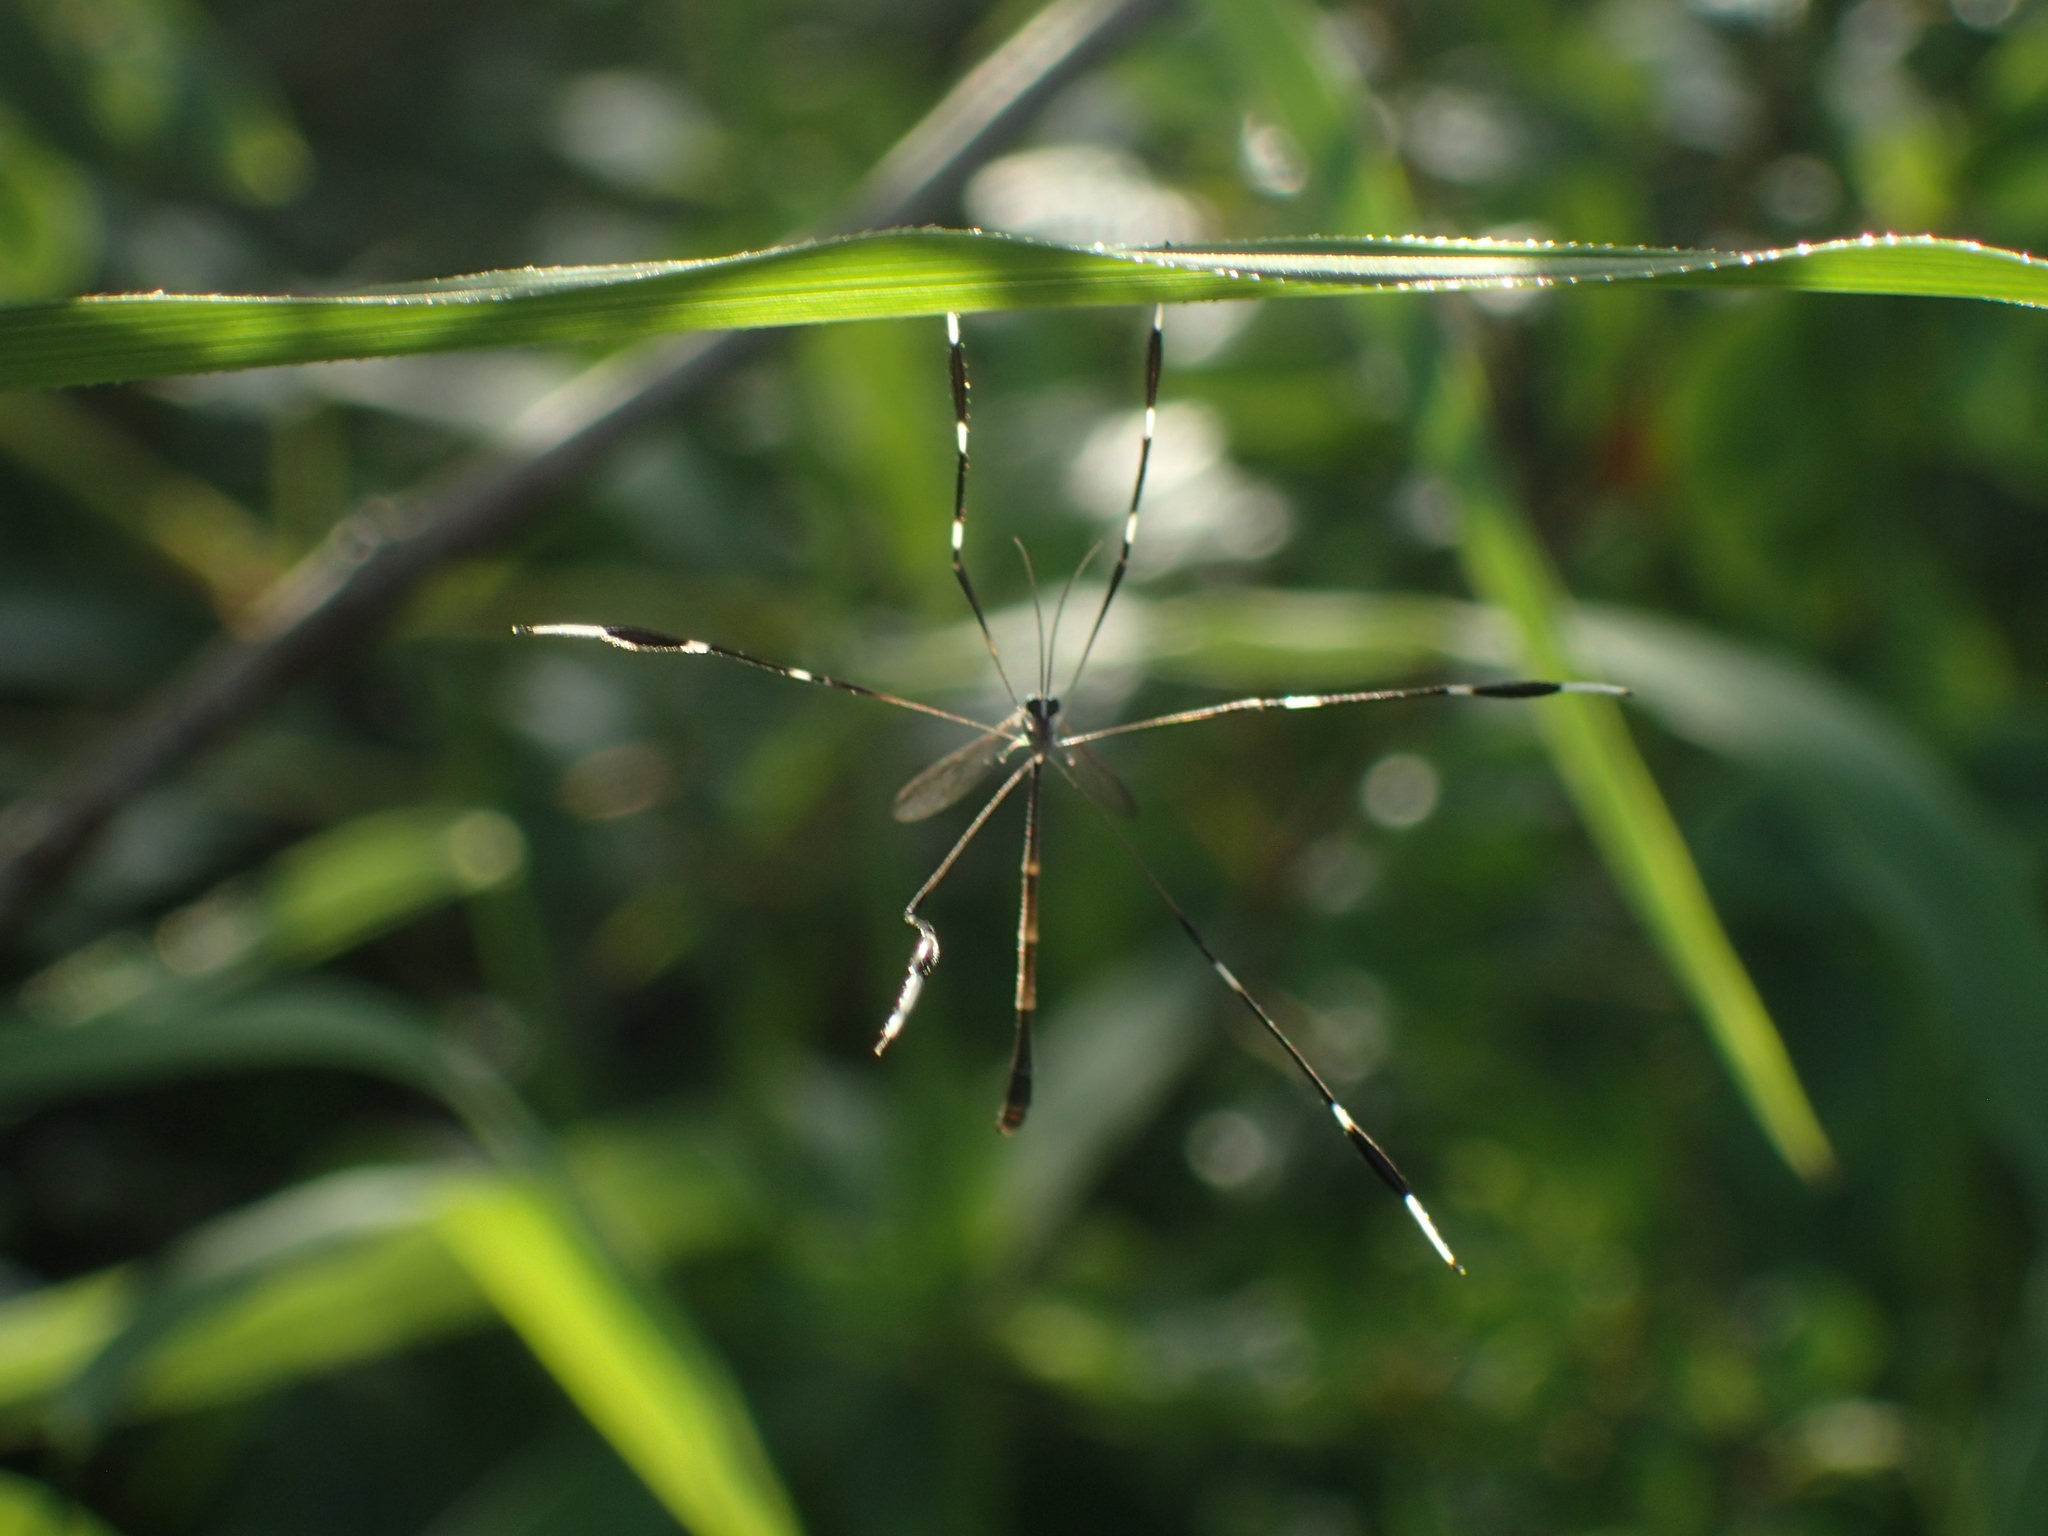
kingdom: Animalia
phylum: Arthropoda
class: Insecta
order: Diptera
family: Ptychopteridae
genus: Bittacomorpha
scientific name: Bittacomorpha clavipes
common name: Eastern phantom crane fly
